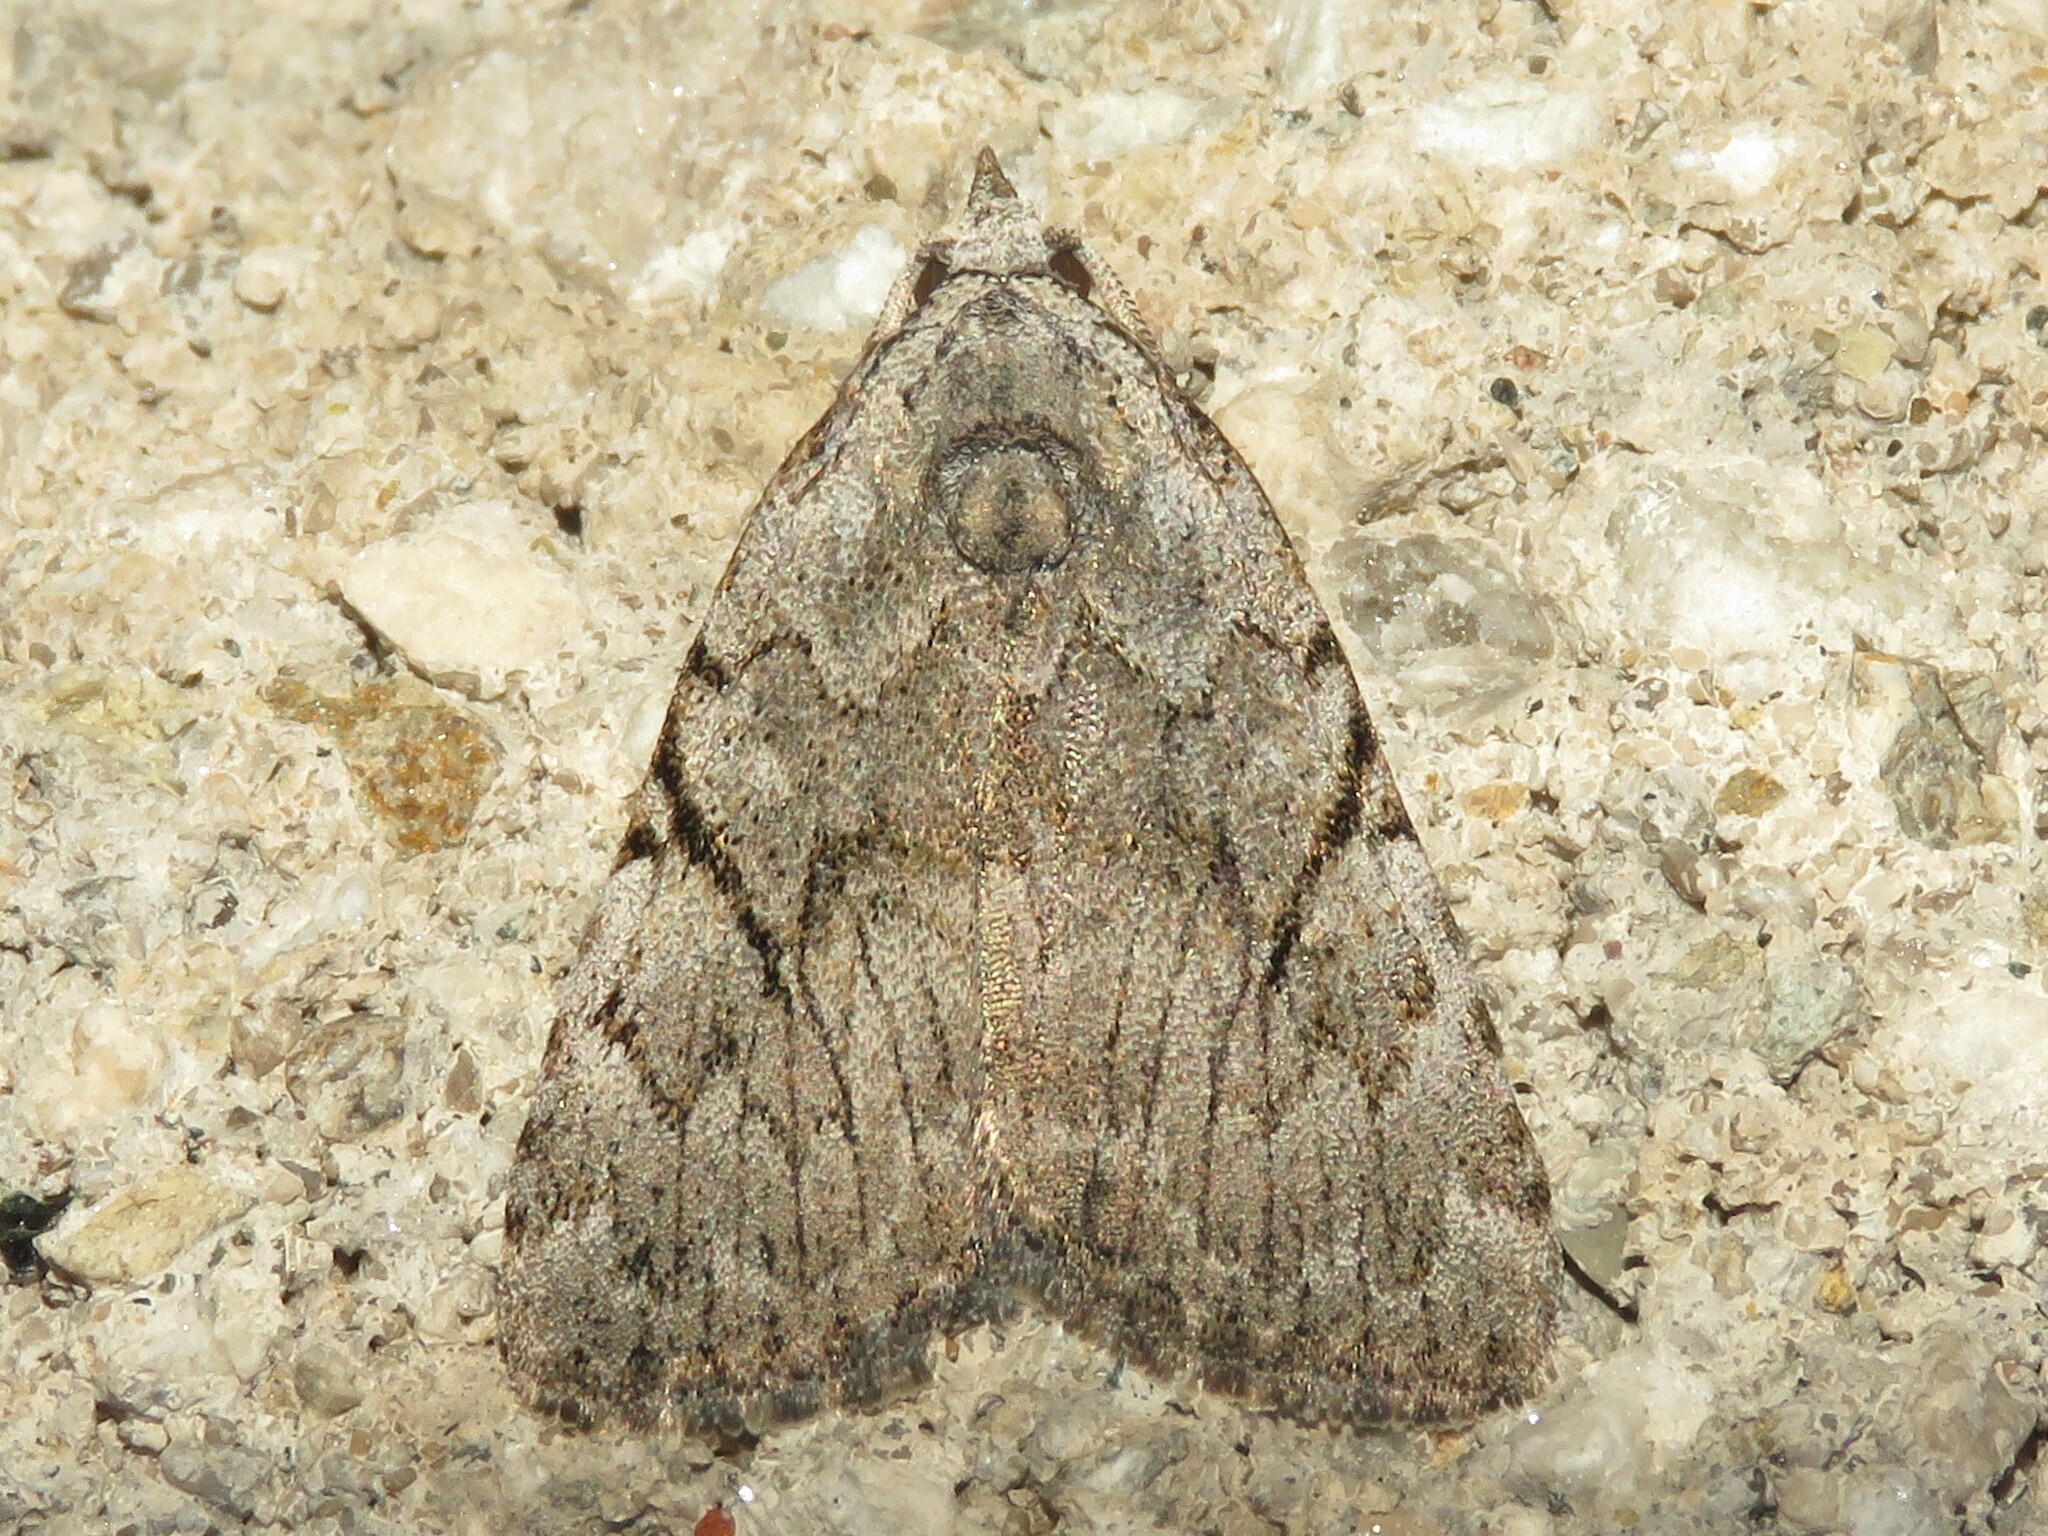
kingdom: Animalia
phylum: Arthropoda
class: Insecta
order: Lepidoptera
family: Noctuidae
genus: Balsa
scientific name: Balsa malana
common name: Many-dotted appleworm moth
